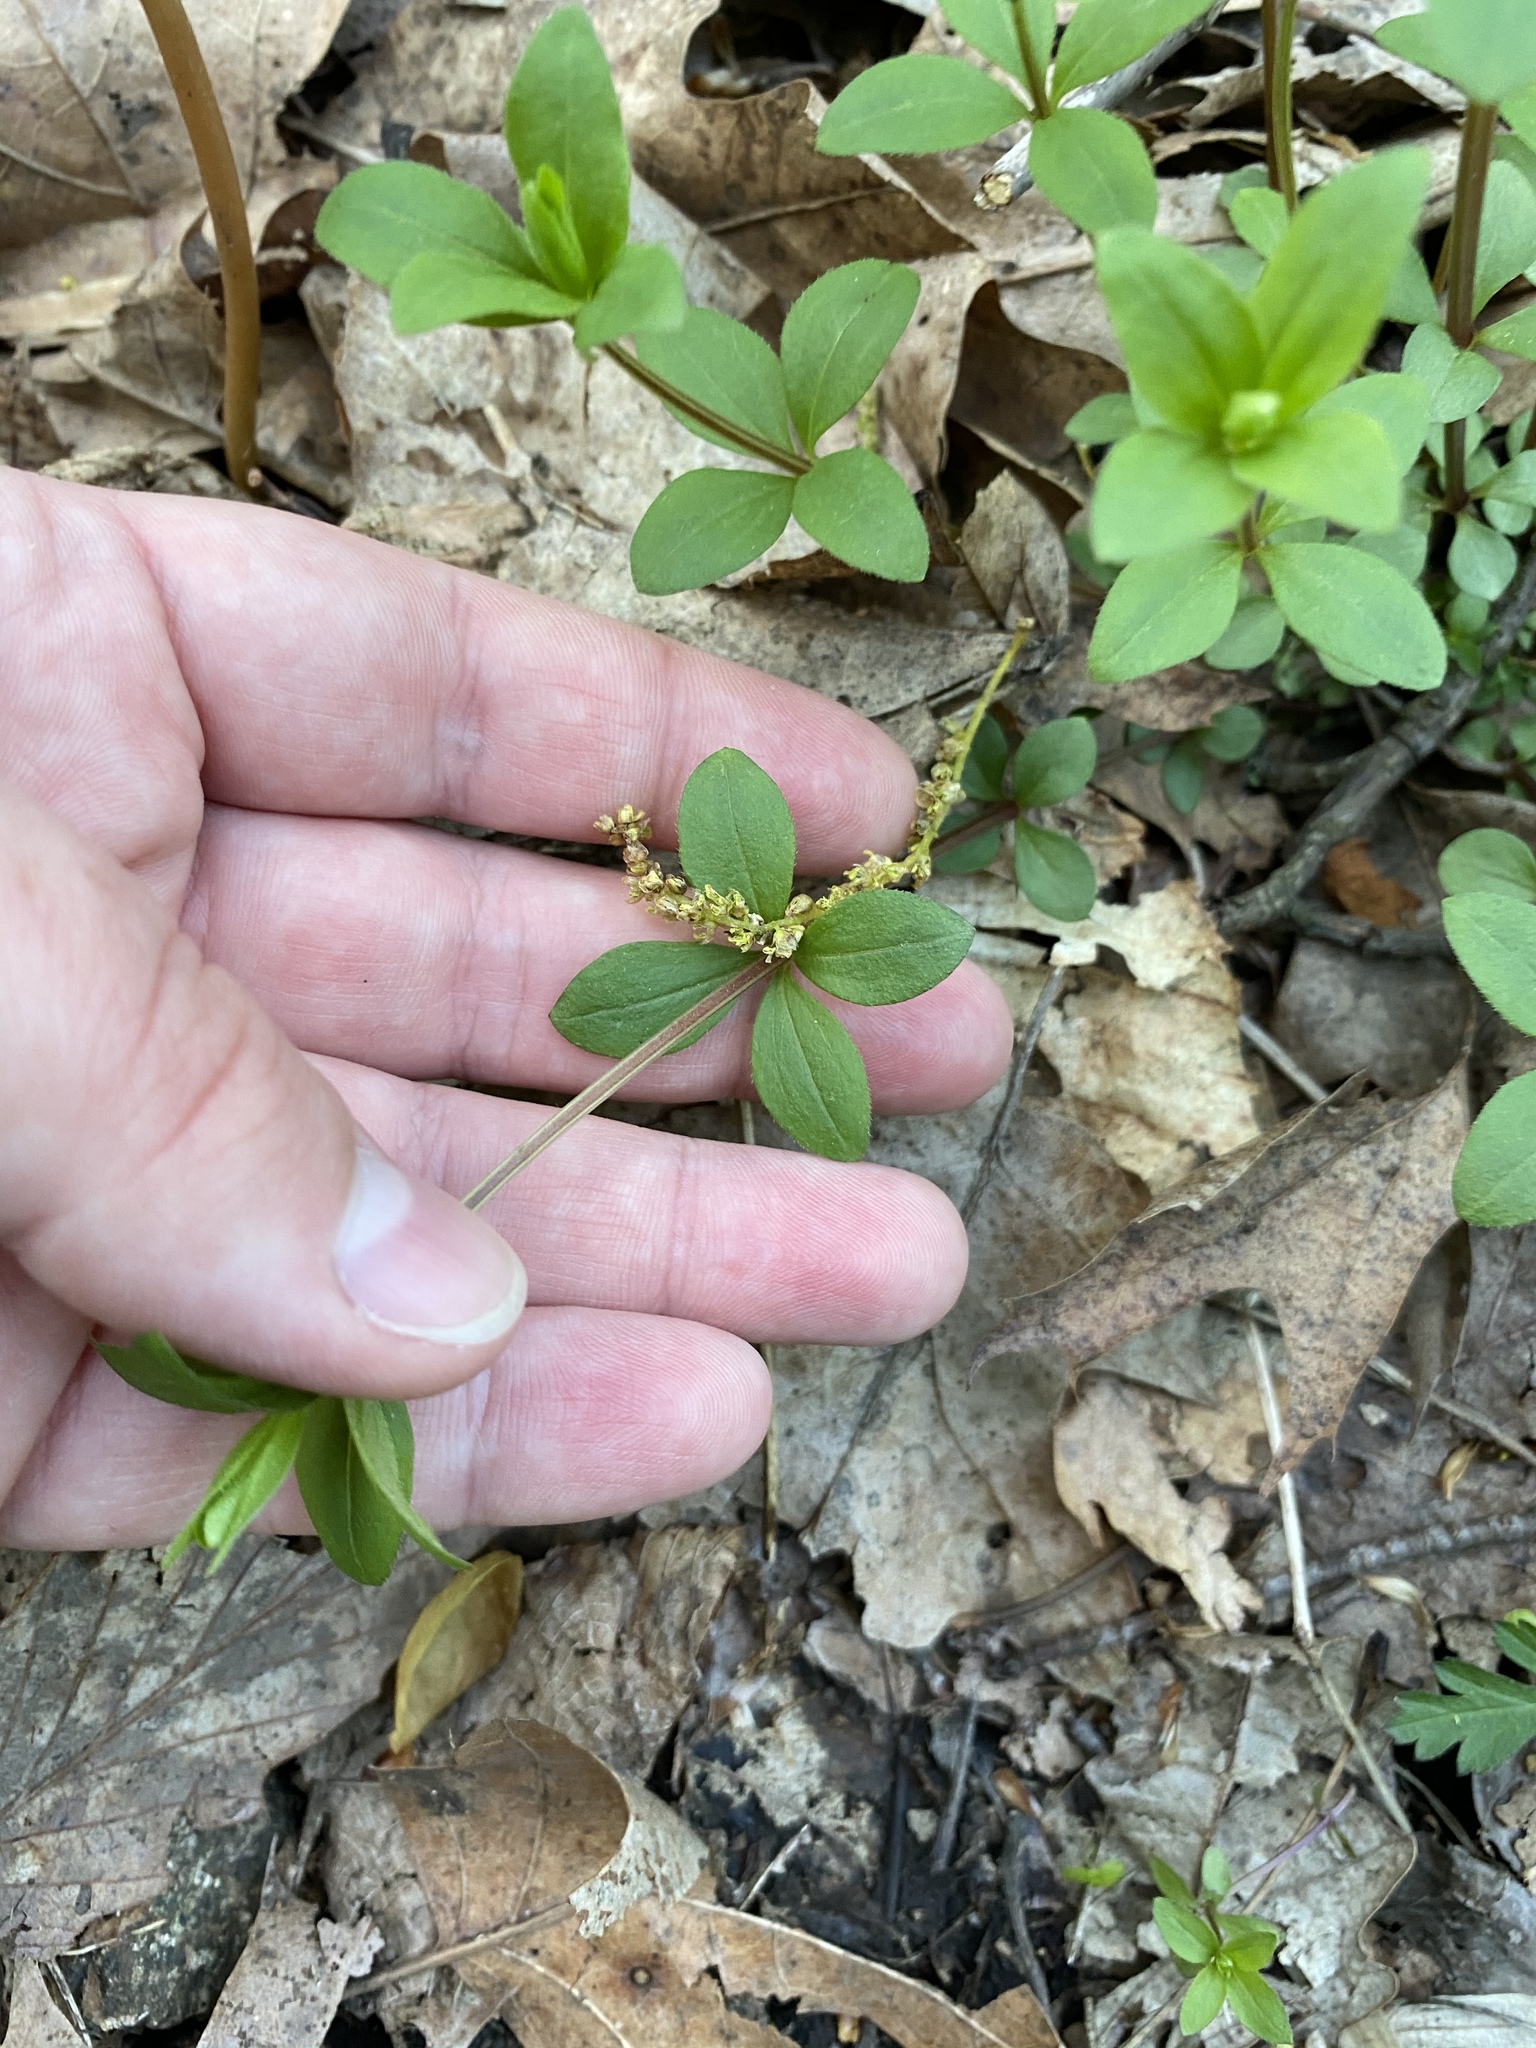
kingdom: Plantae
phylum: Tracheophyta
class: Magnoliopsida
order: Gentianales
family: Rubiaceae
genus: Galium
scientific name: Galium circaezans
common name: Forest bedstraw
